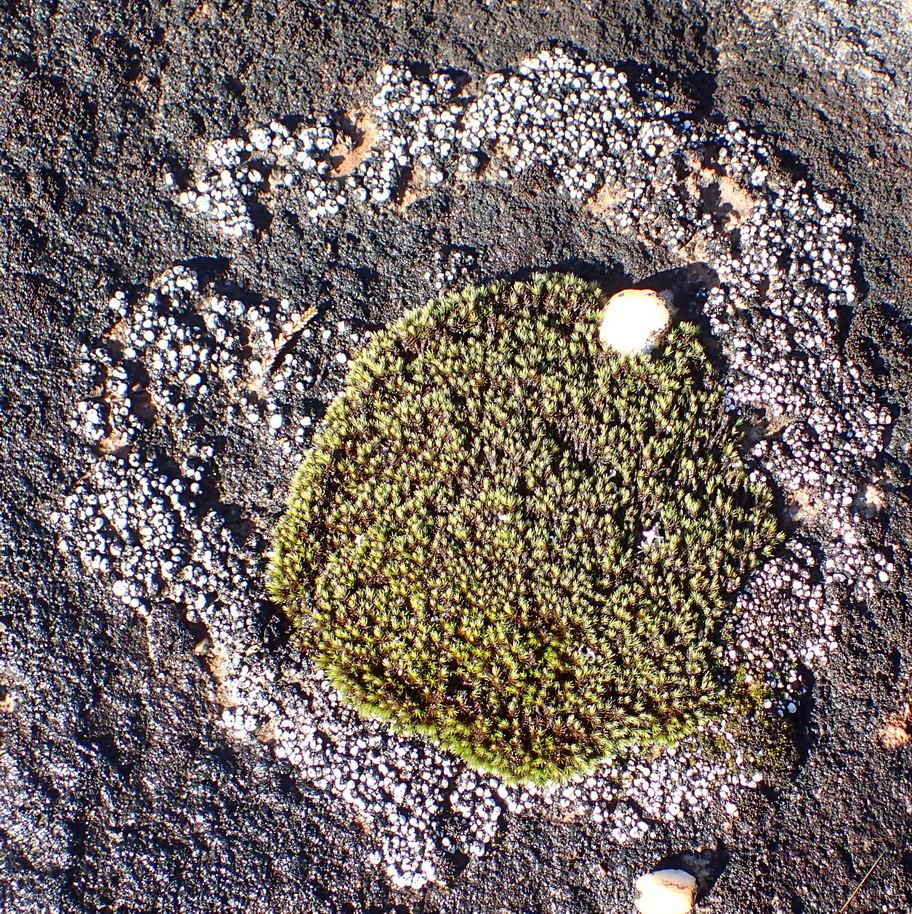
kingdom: Plantae
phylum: Bryophyta
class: Bryopsida
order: Grimmiales
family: Grimmiaceae
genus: Grimmia
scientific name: Grimmia laevigata
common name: Hoary grimmia
